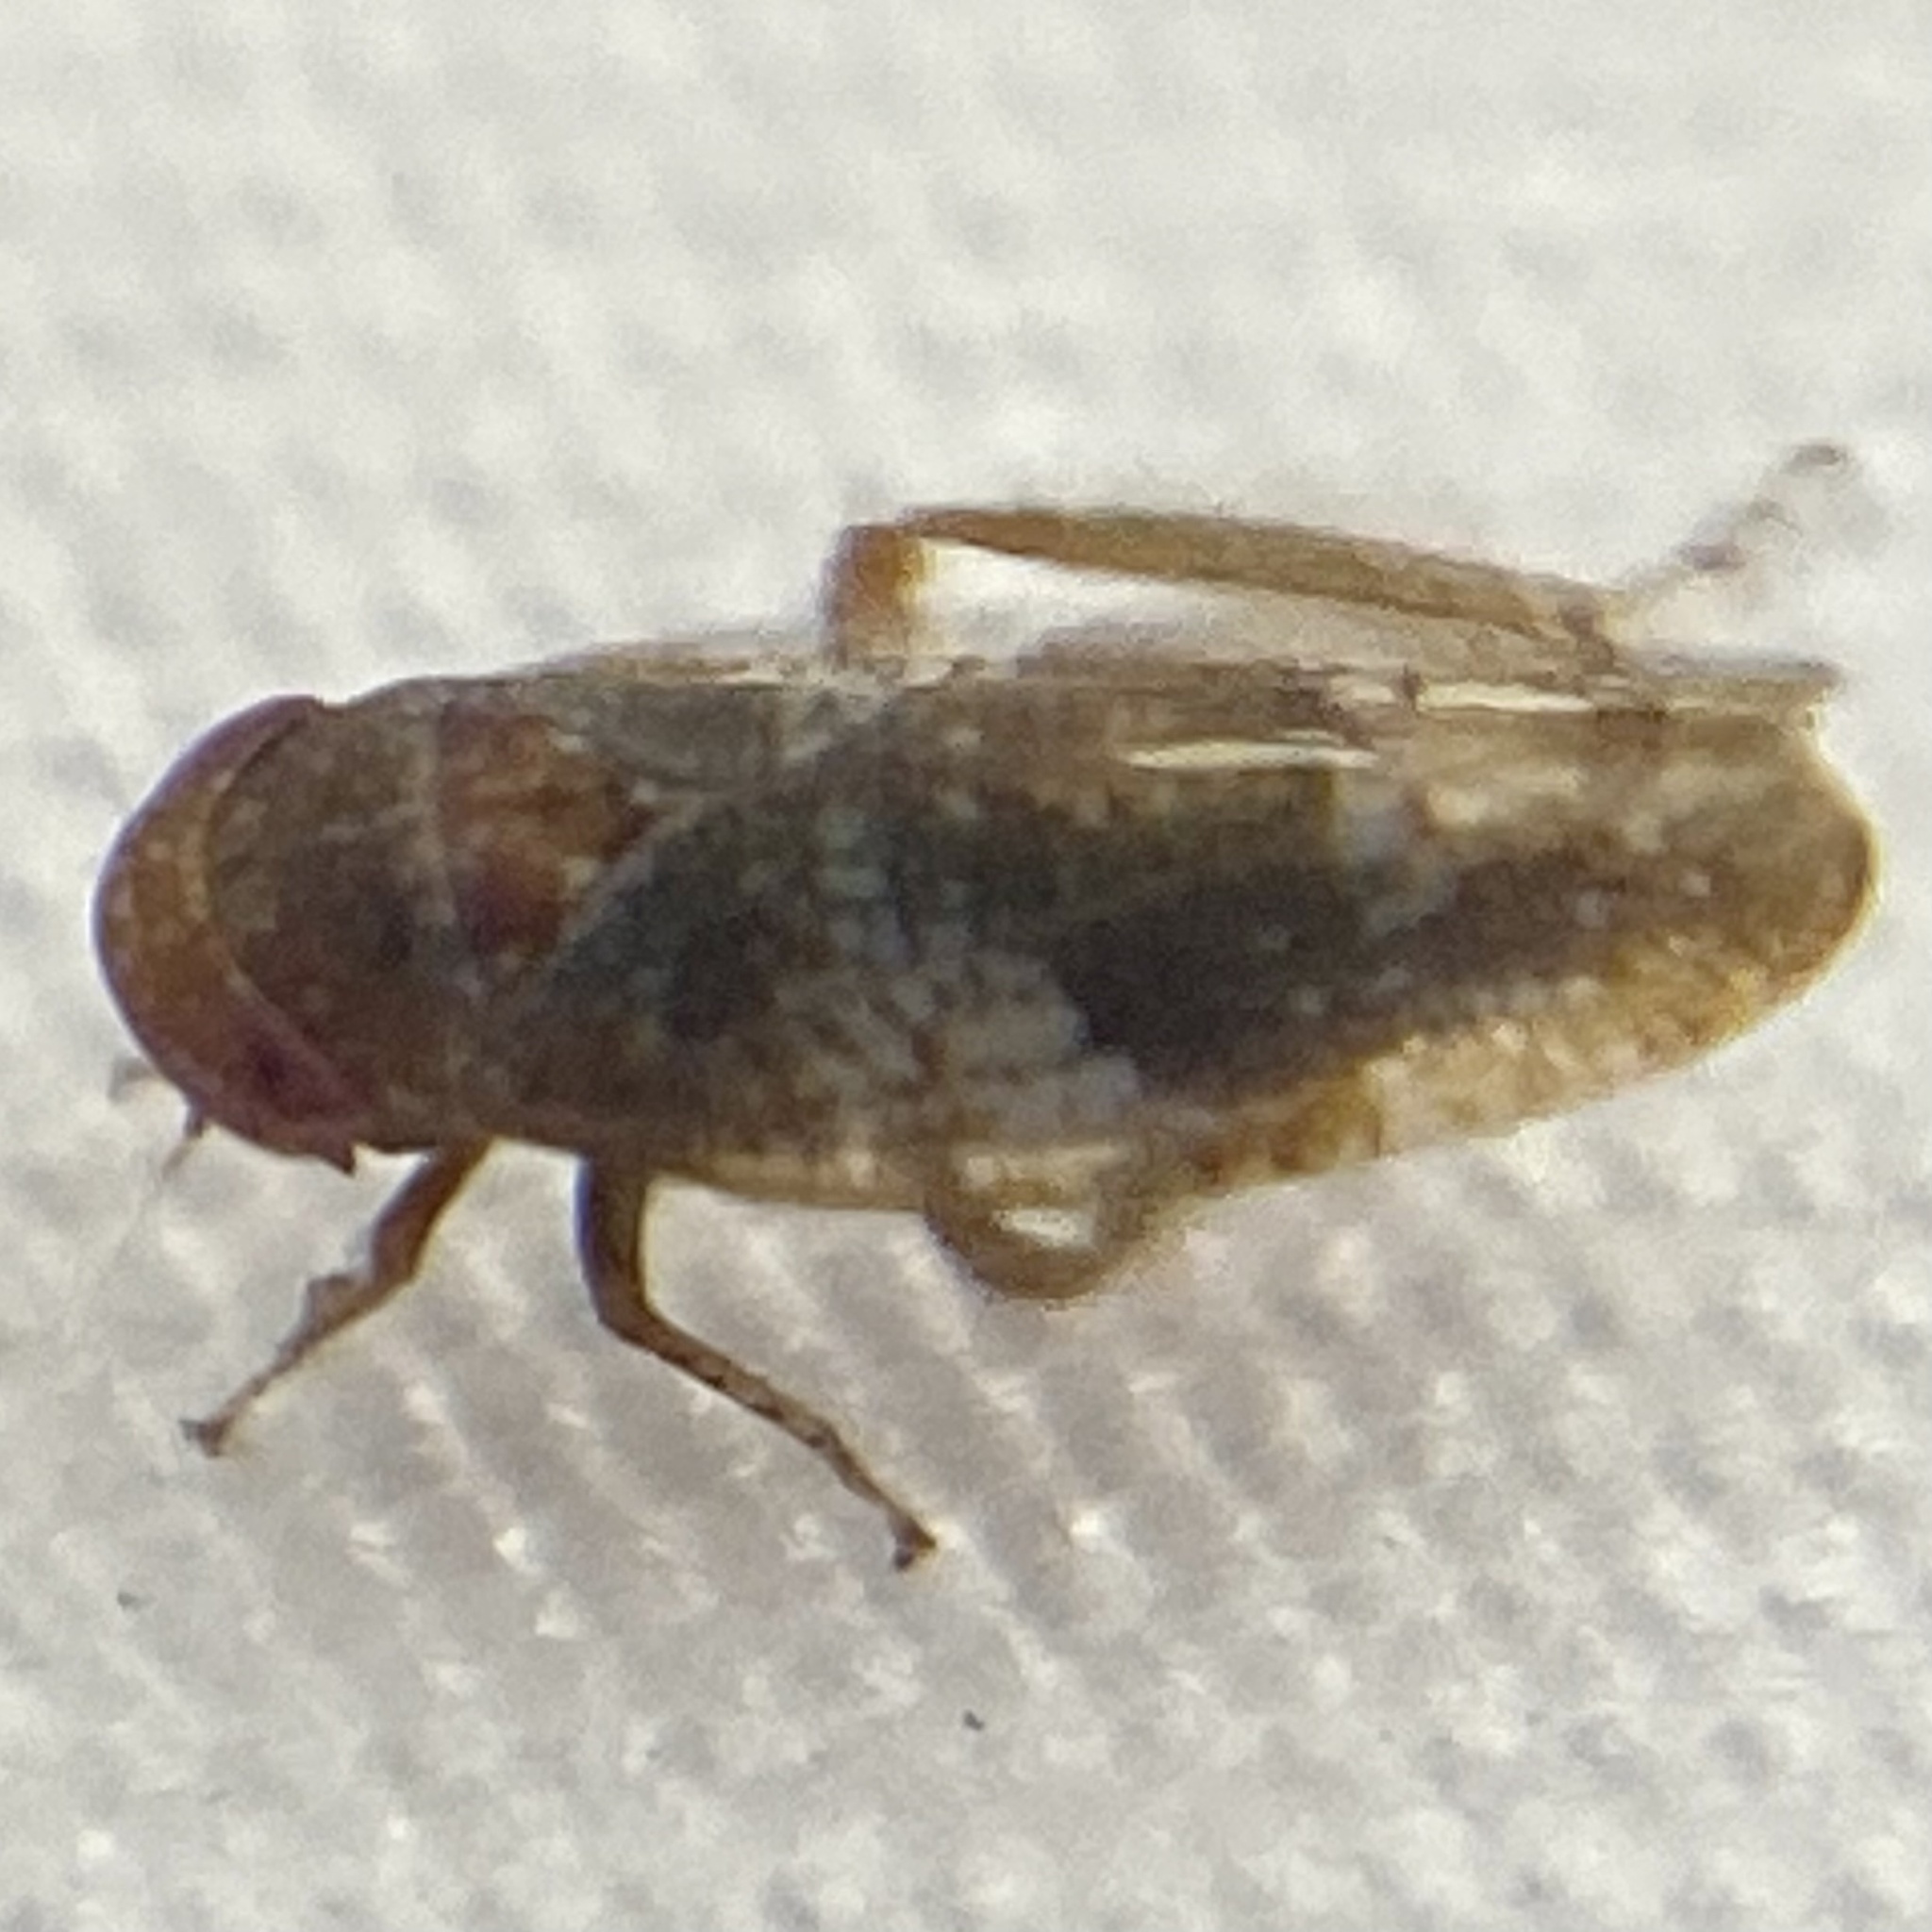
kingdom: Animalia
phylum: Arthropoda
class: Insecta
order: Hemiptera
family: Cicadellidae
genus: Norvellina
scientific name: Norvellina helenae
